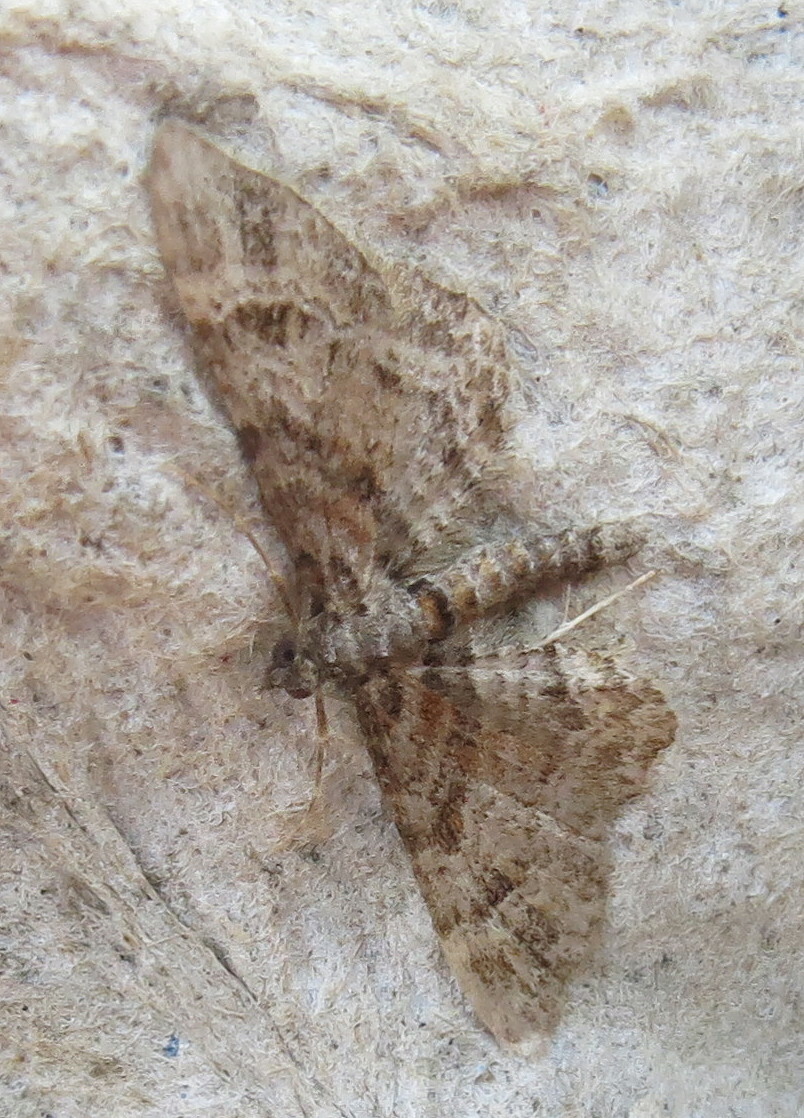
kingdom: Animalia
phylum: Arthropoda
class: Insecta
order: Lepidoptera
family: Geometridae
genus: Gymnoscelis
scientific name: Gymnoscelis rufifasciata
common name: Double-striped pug
